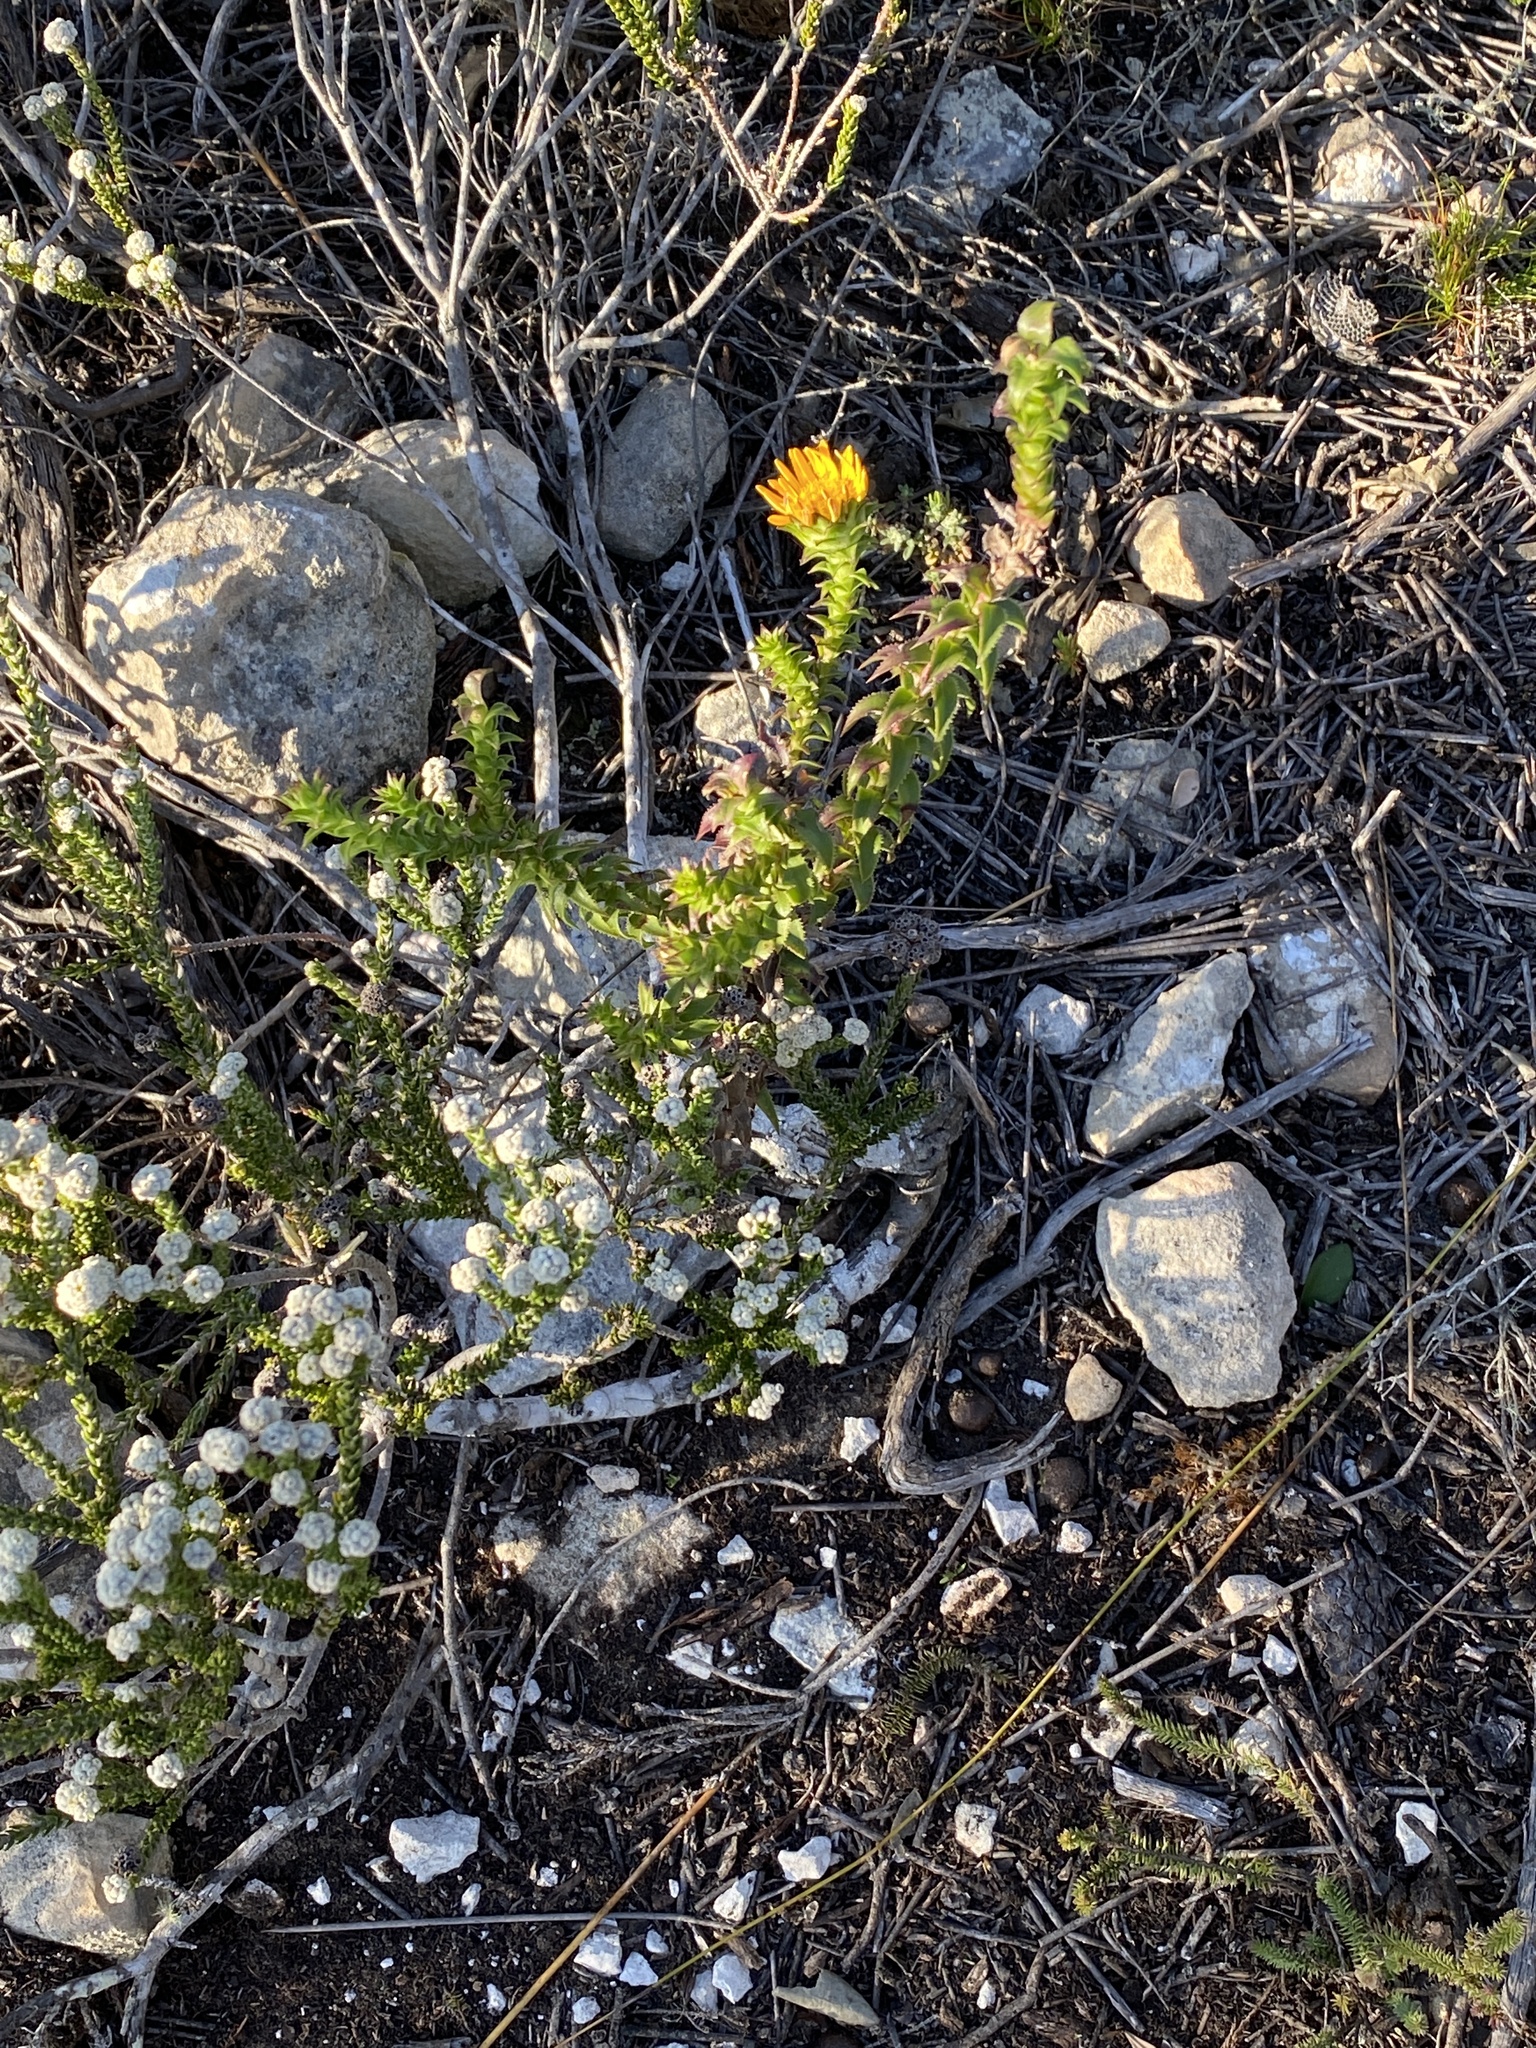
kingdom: Plantae
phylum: Tracheophyta
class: Magnoliopsida
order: Asterales
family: Asteraceae
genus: Oedera
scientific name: Oedera imbricata
